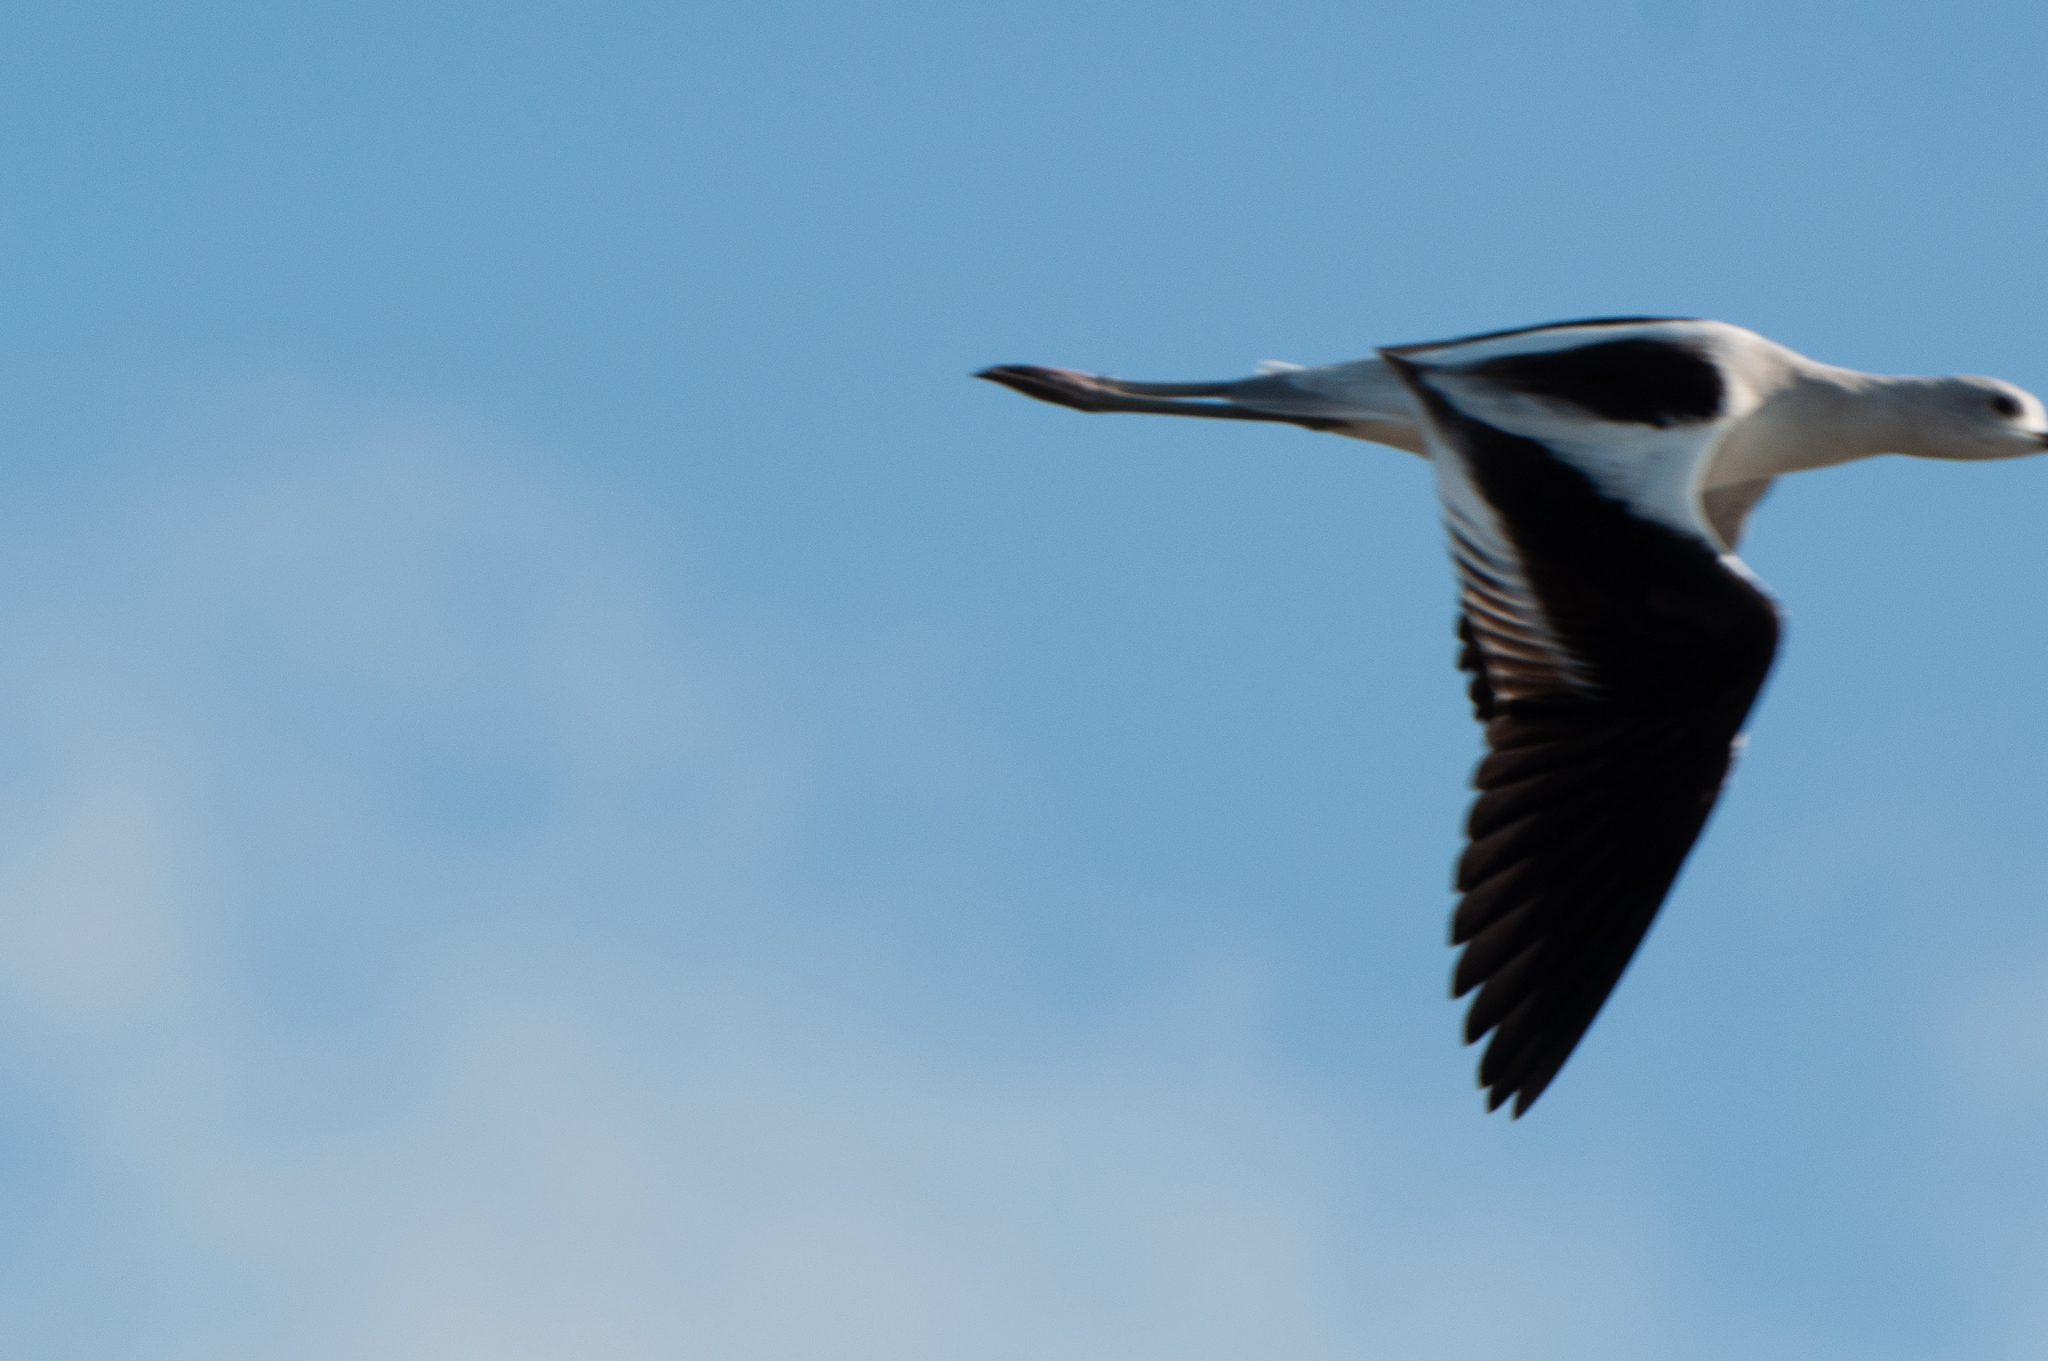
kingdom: Animalia
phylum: Chordata
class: Aves
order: Charadriiformes
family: Recurvirostridae
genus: Recurvirostra
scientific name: Recurvirostra americana
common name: American avocet
